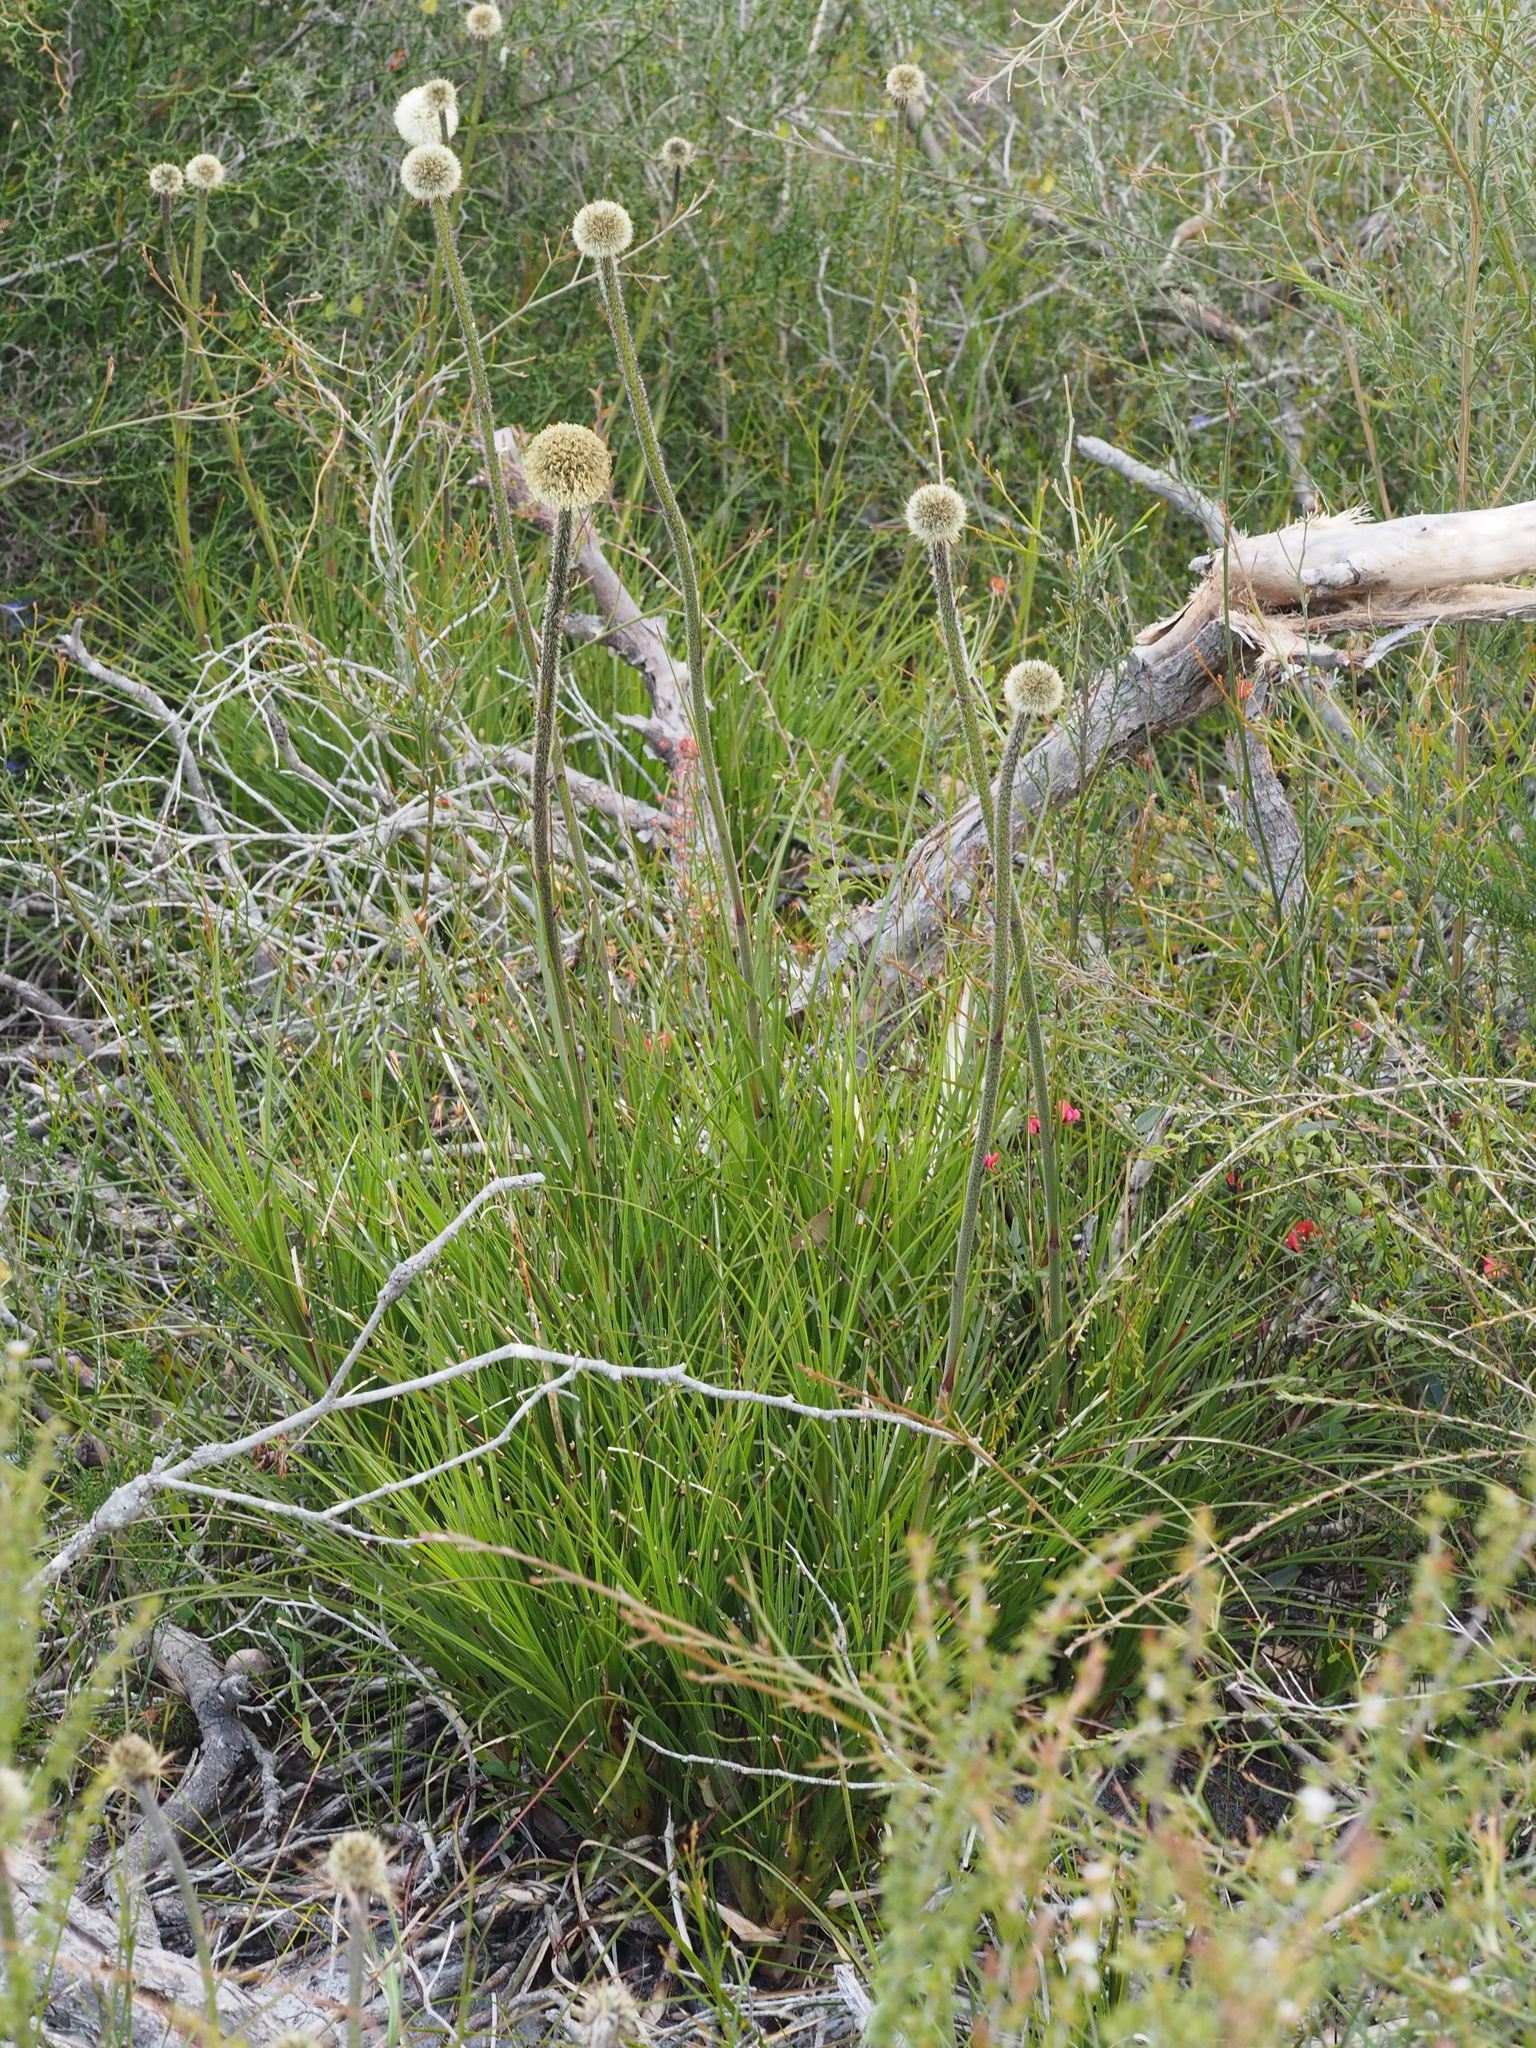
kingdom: Plantae
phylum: Tracheophyta
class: Liliopsida
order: Arecales
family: Dasypogonaceae
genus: Dasypogon
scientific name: Dasypogon bromeliifolius
